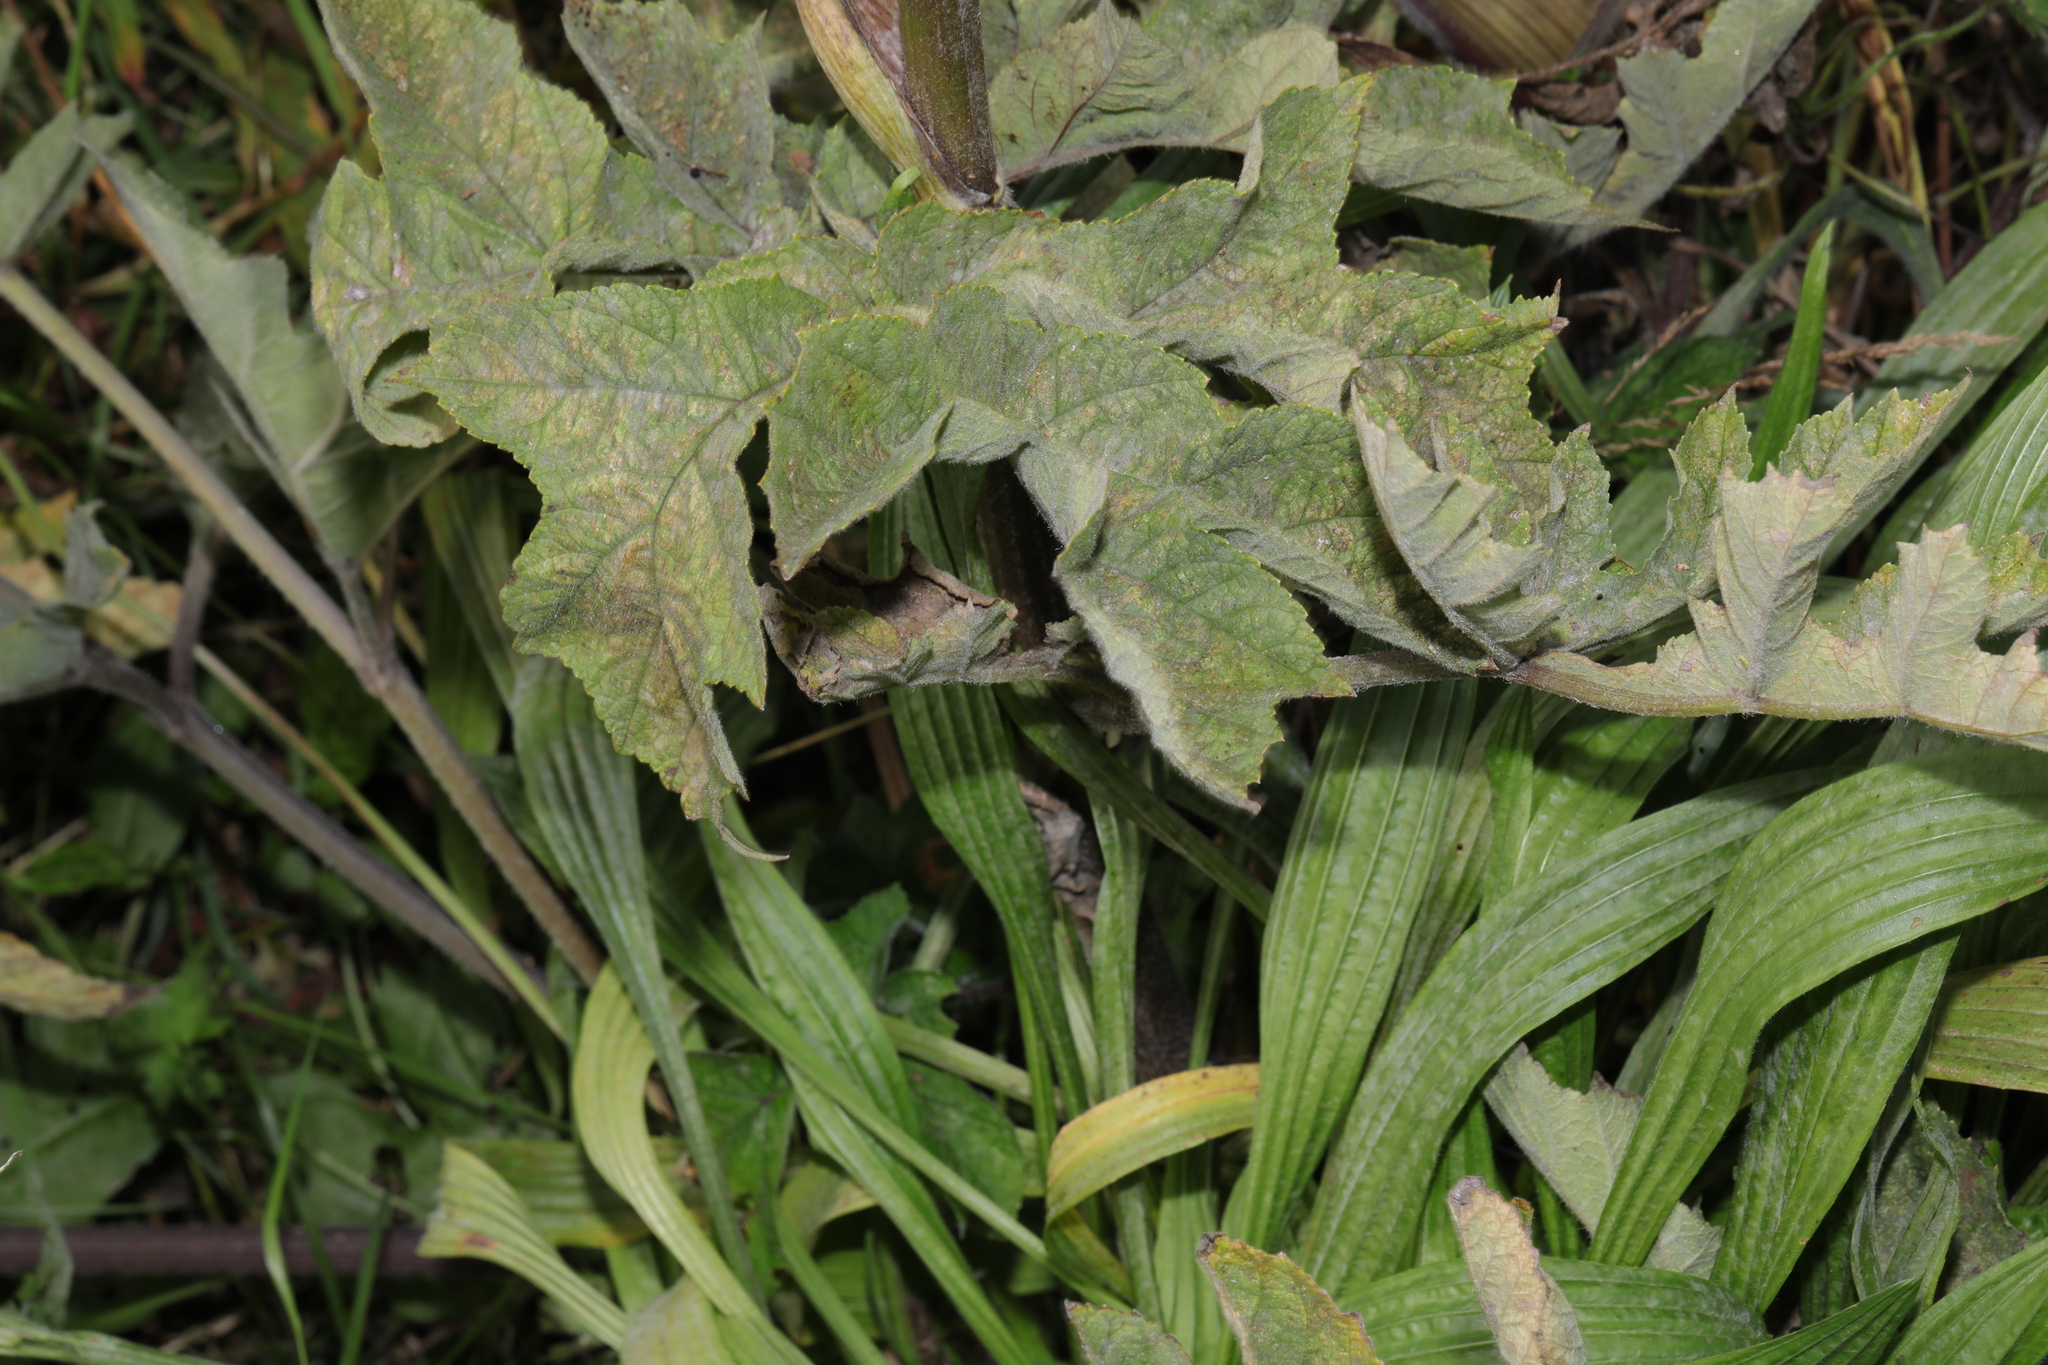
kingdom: Plantae
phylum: Tracheophyta
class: Magnoliopsida
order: Apiales
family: Apiaceae
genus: Heracleum
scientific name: Heracleum sphondylium
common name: Hogweed
